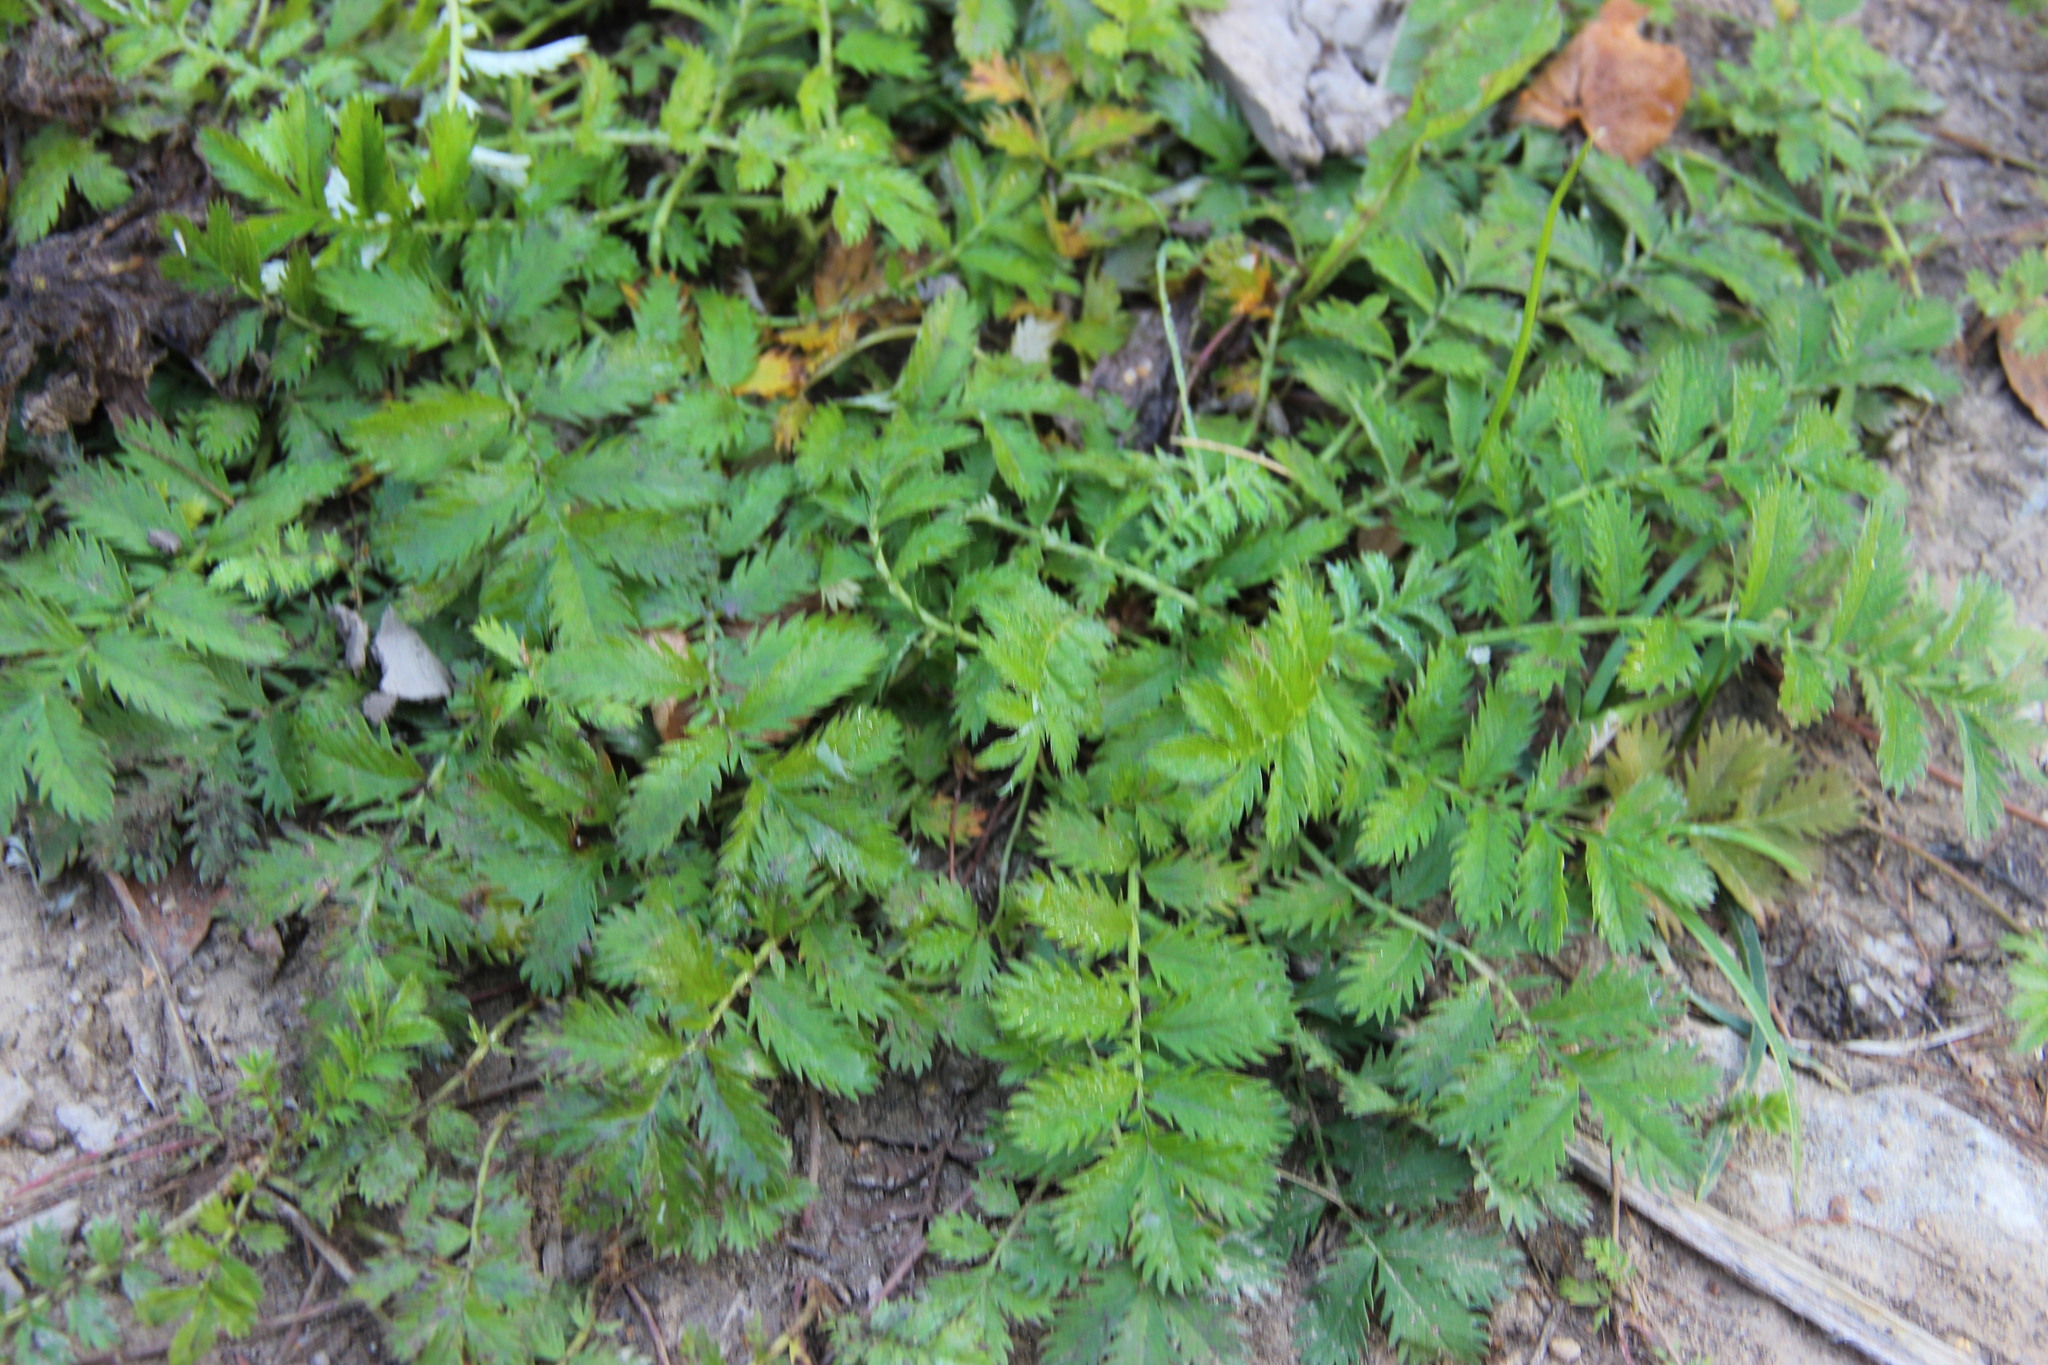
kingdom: Plantae
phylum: Tracheophyta
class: Magnoliopsida
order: Rosales
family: Rosaceae
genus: Argentina
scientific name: Argentina anserina
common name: Common silverweed
